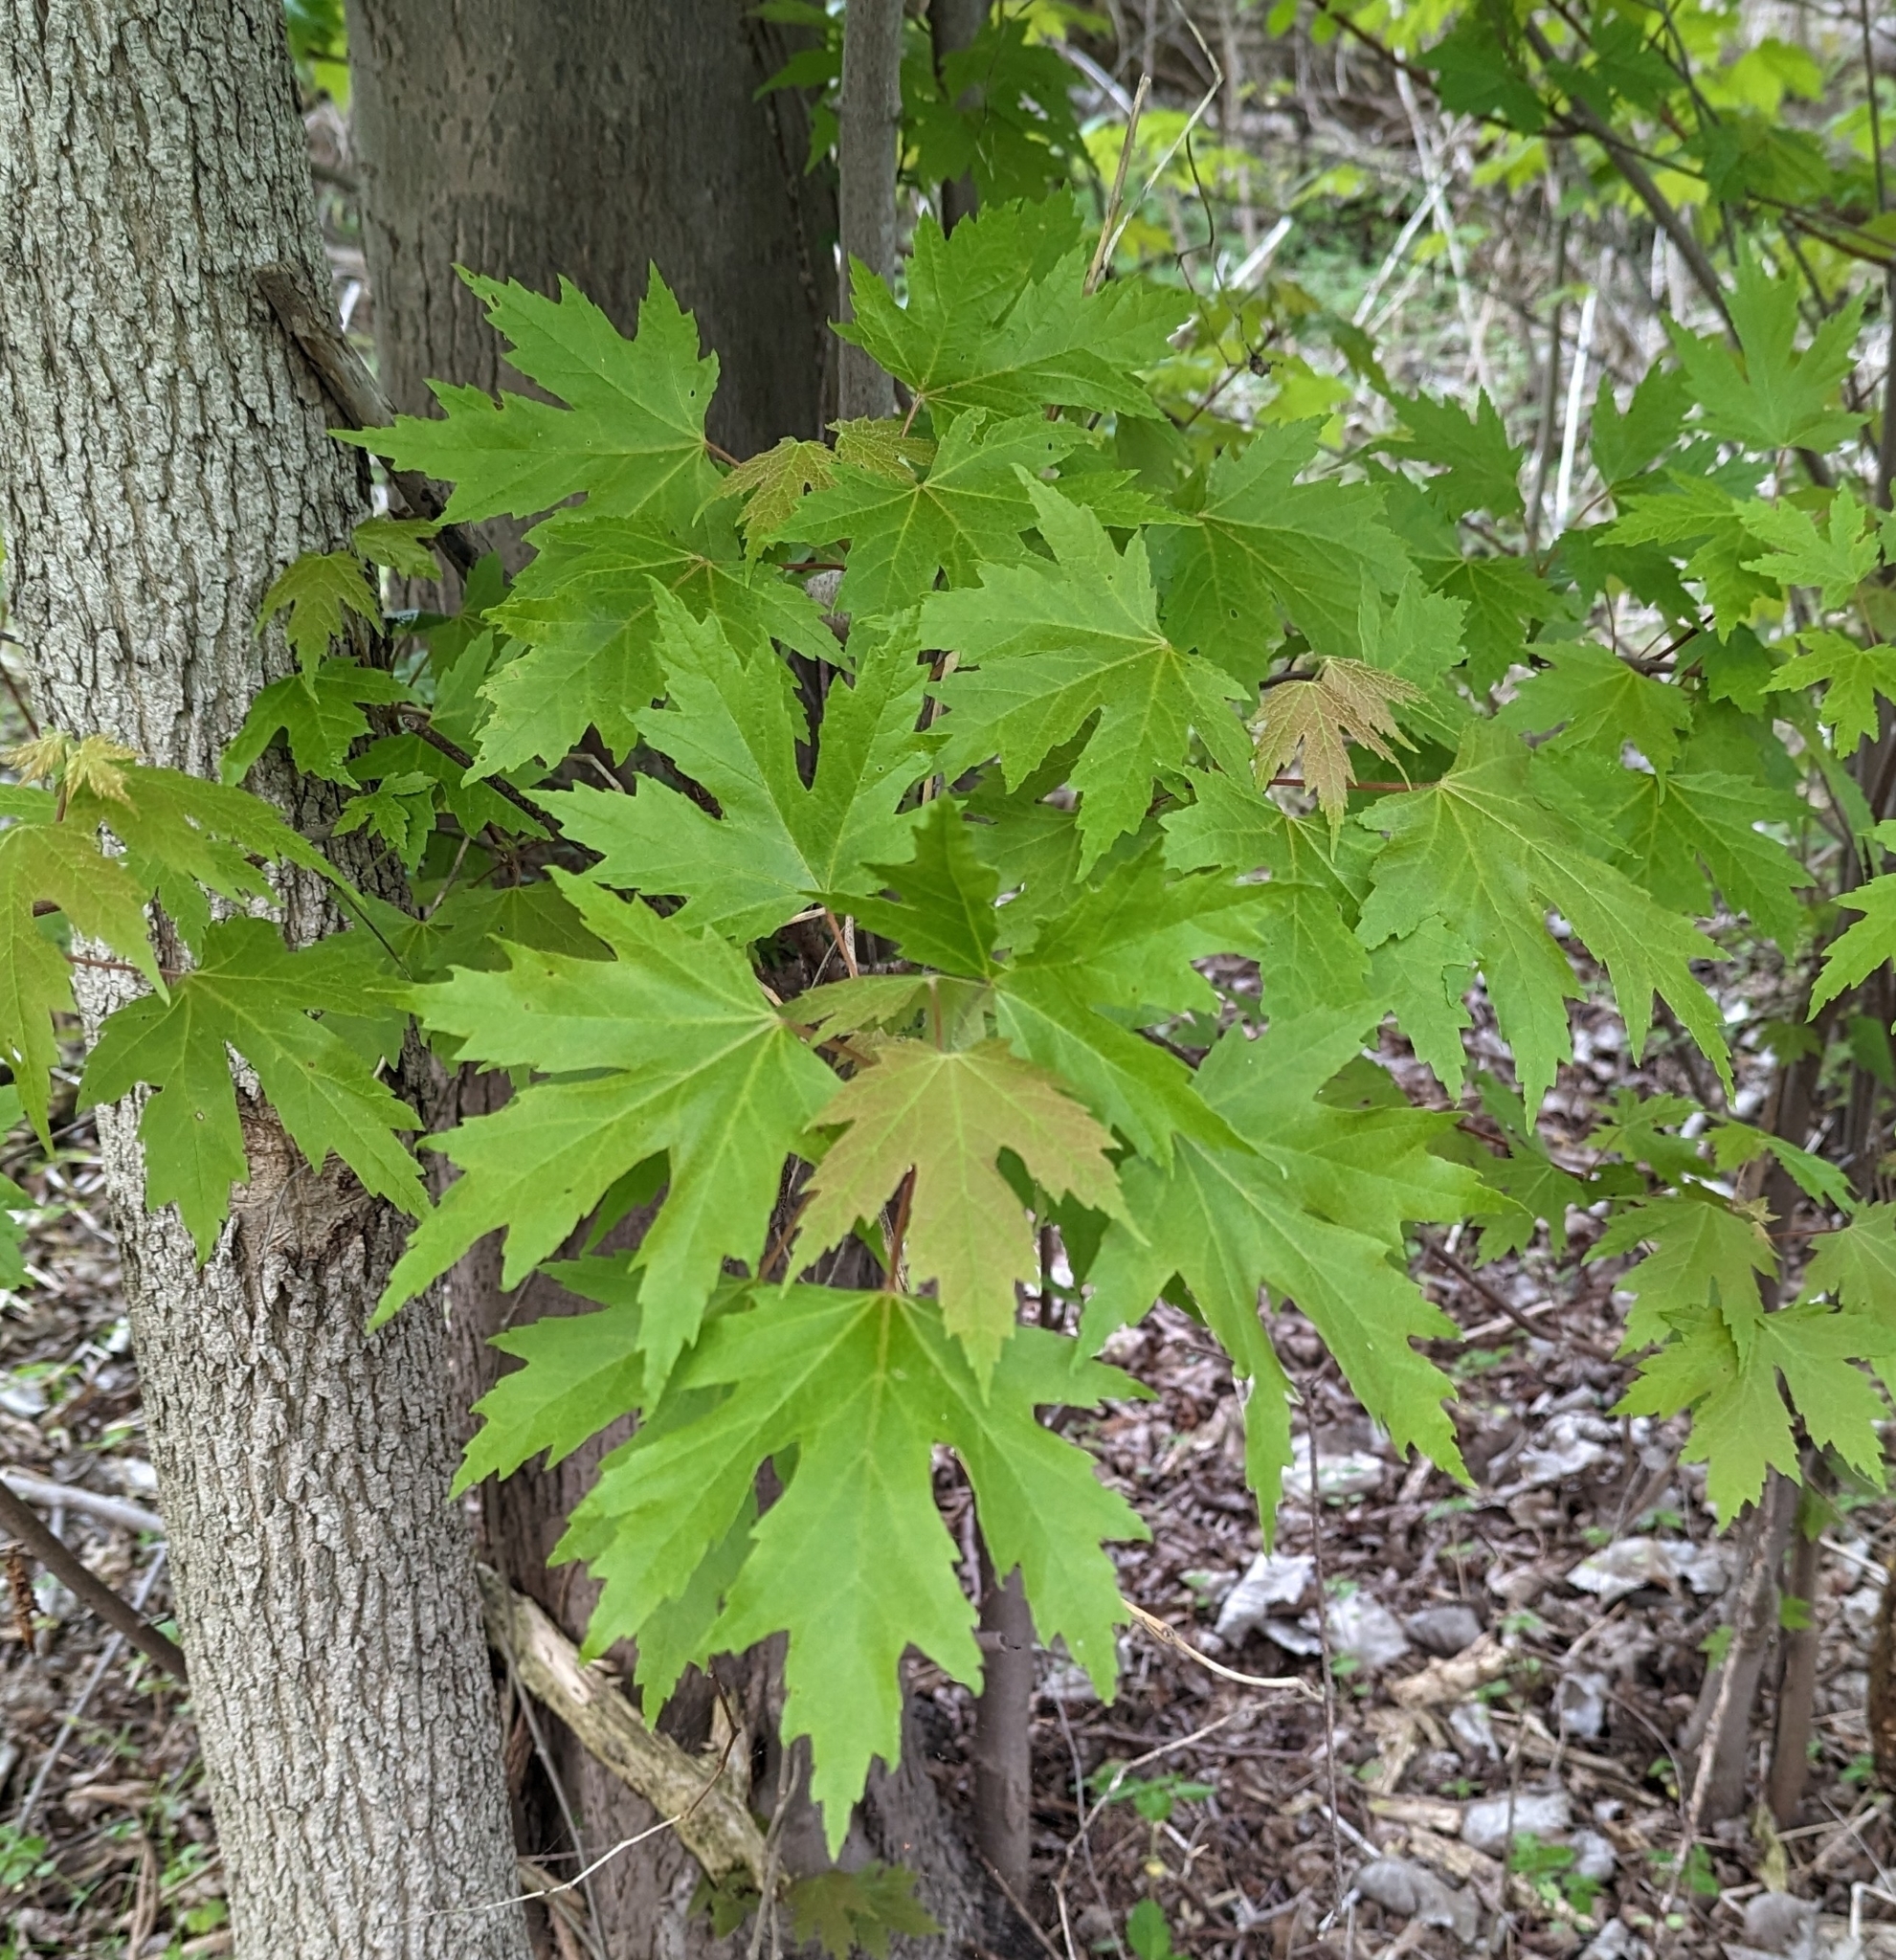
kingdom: Plantae
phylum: Tracheophyta
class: Magnoliopsida
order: Sapindales
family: Sapindaceae
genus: Acer
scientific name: Acer saccharinum
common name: Silver maple
